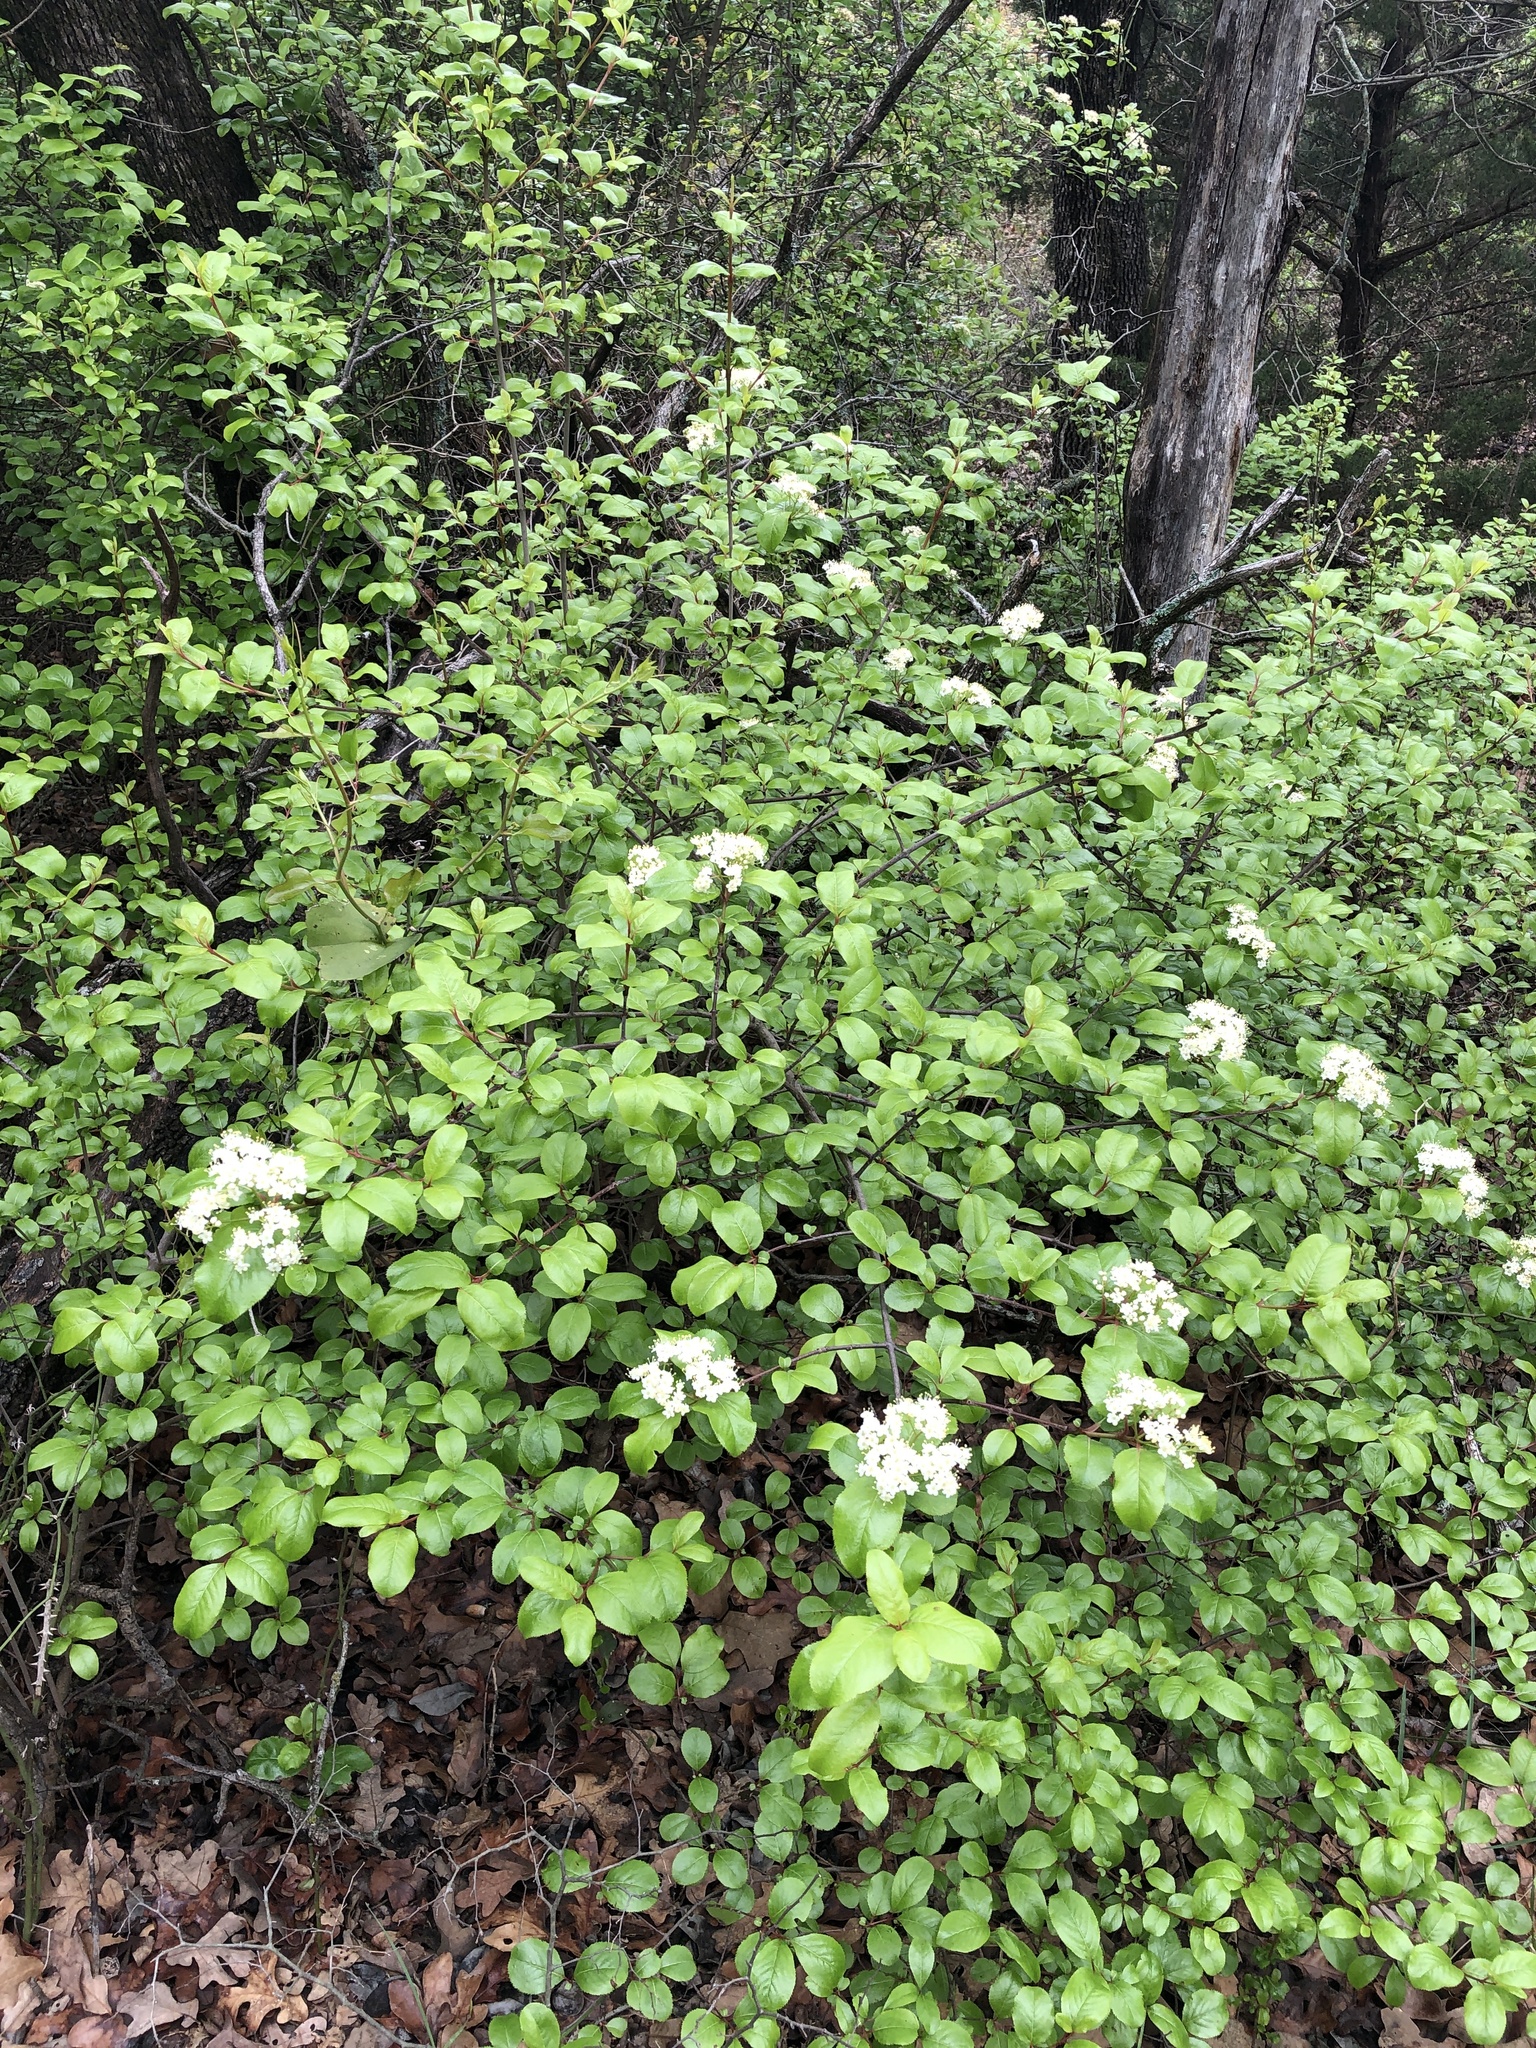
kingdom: Plantae
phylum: Tracheophyta
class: Magnoliopsida
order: Dipsacales
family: Viburnaceae
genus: Viburnum
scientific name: Viburnum rufidulum
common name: Blue haw
